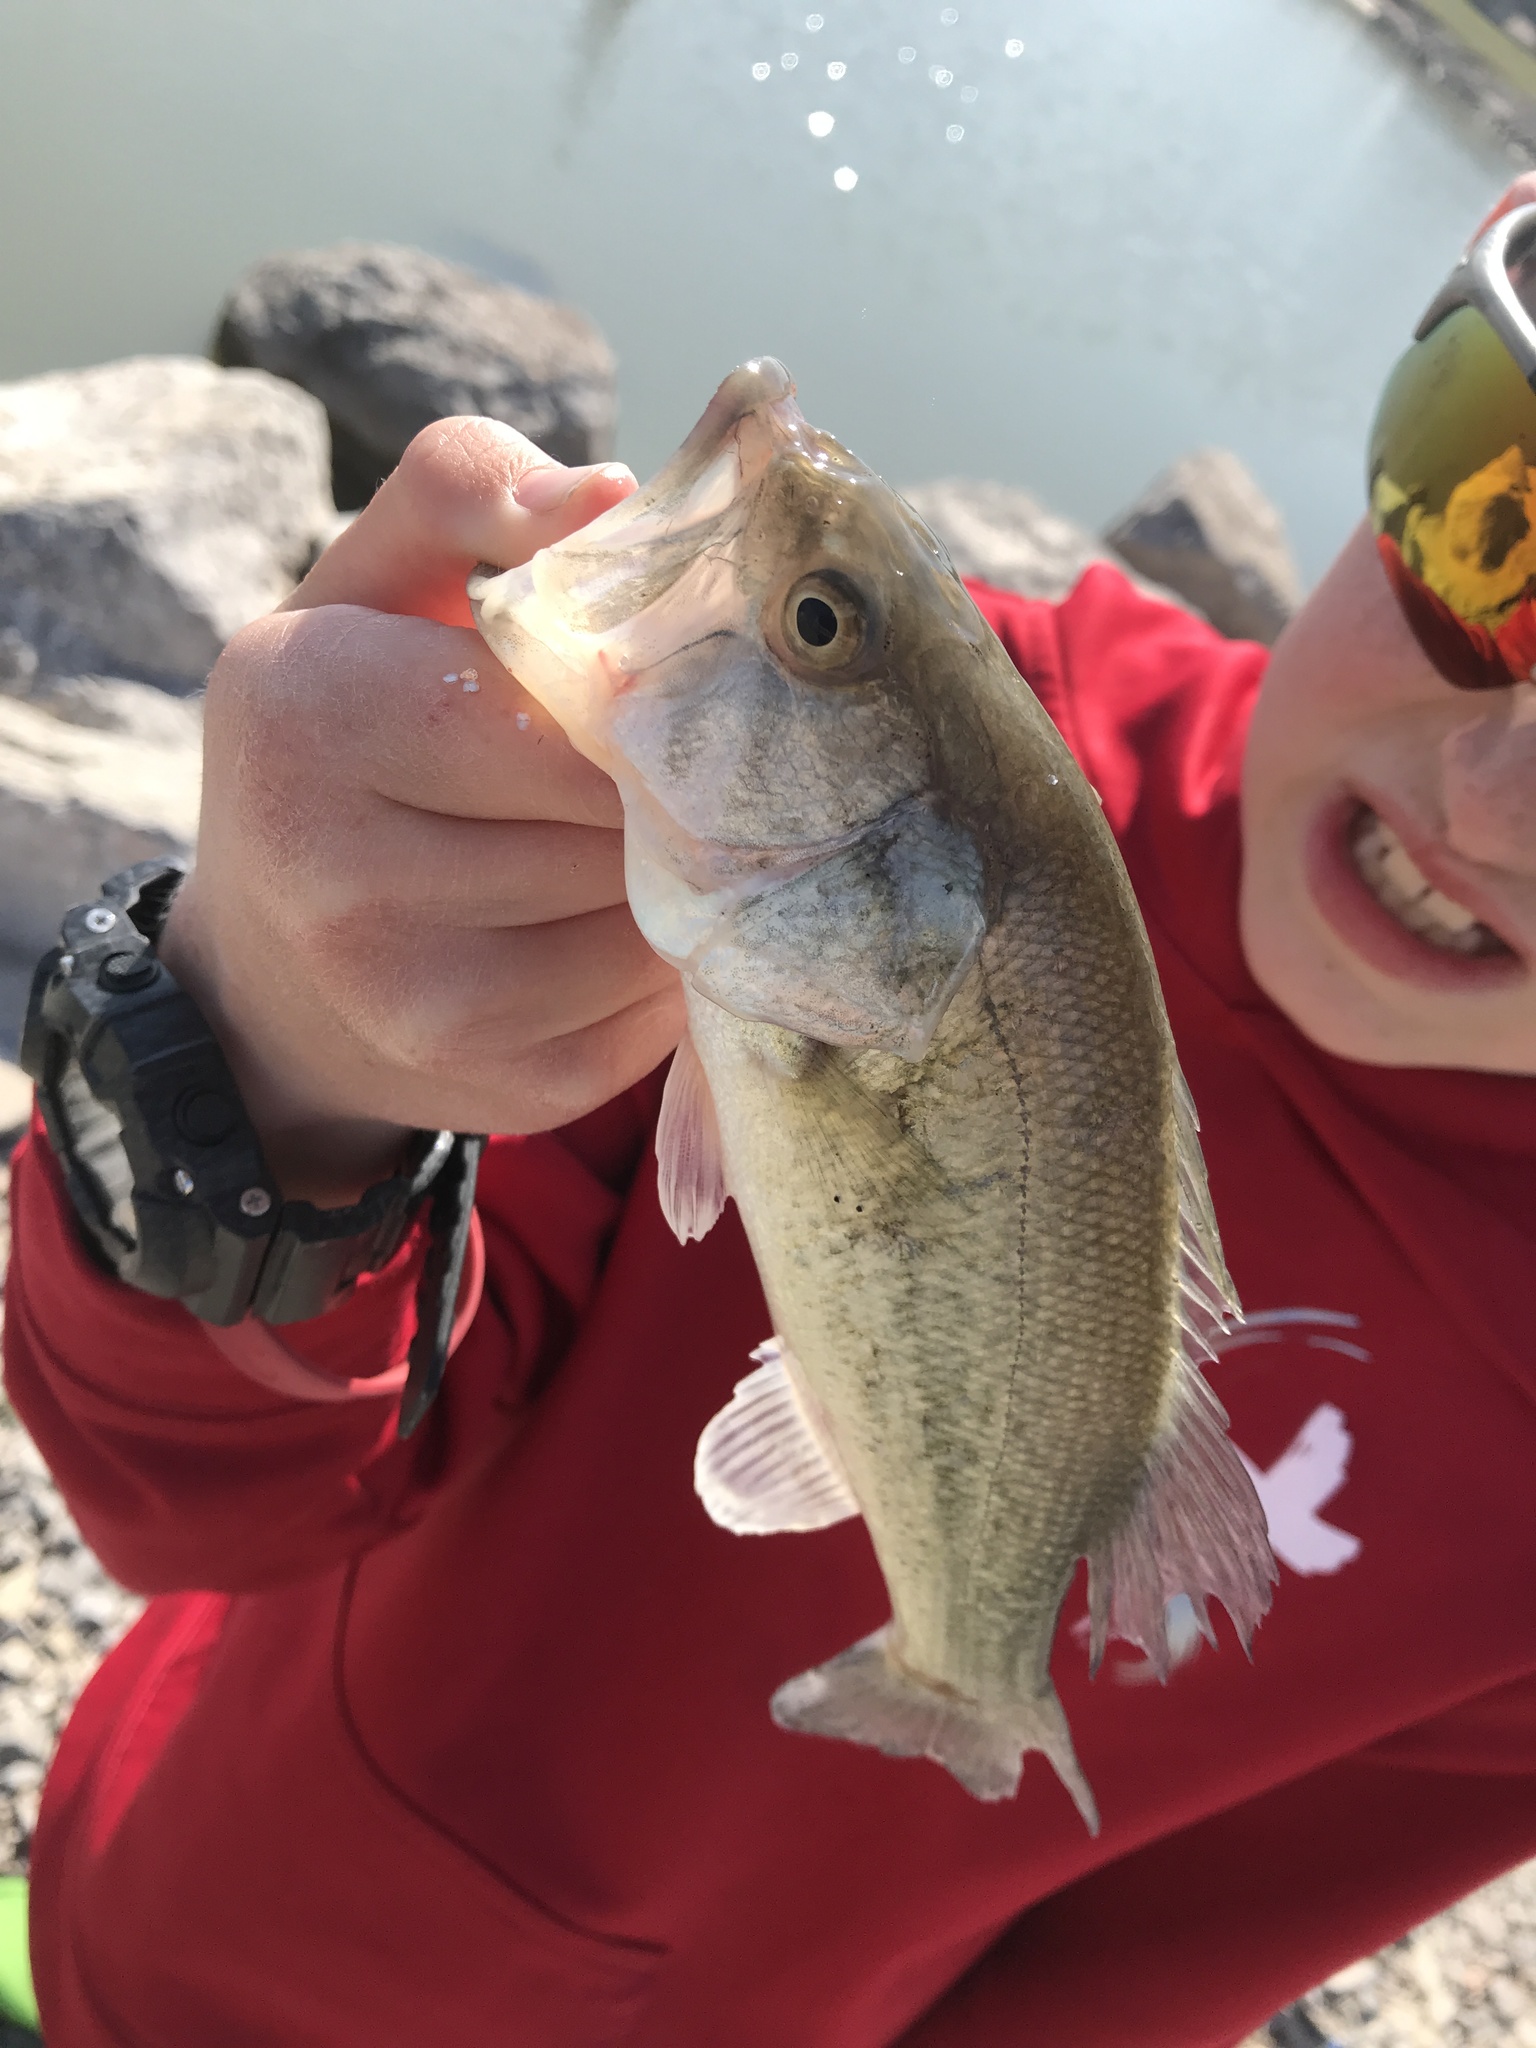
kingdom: Animalia
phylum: Chordata
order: Perciformes
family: Centrarchidae
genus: Micropterus
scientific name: Micropterus
